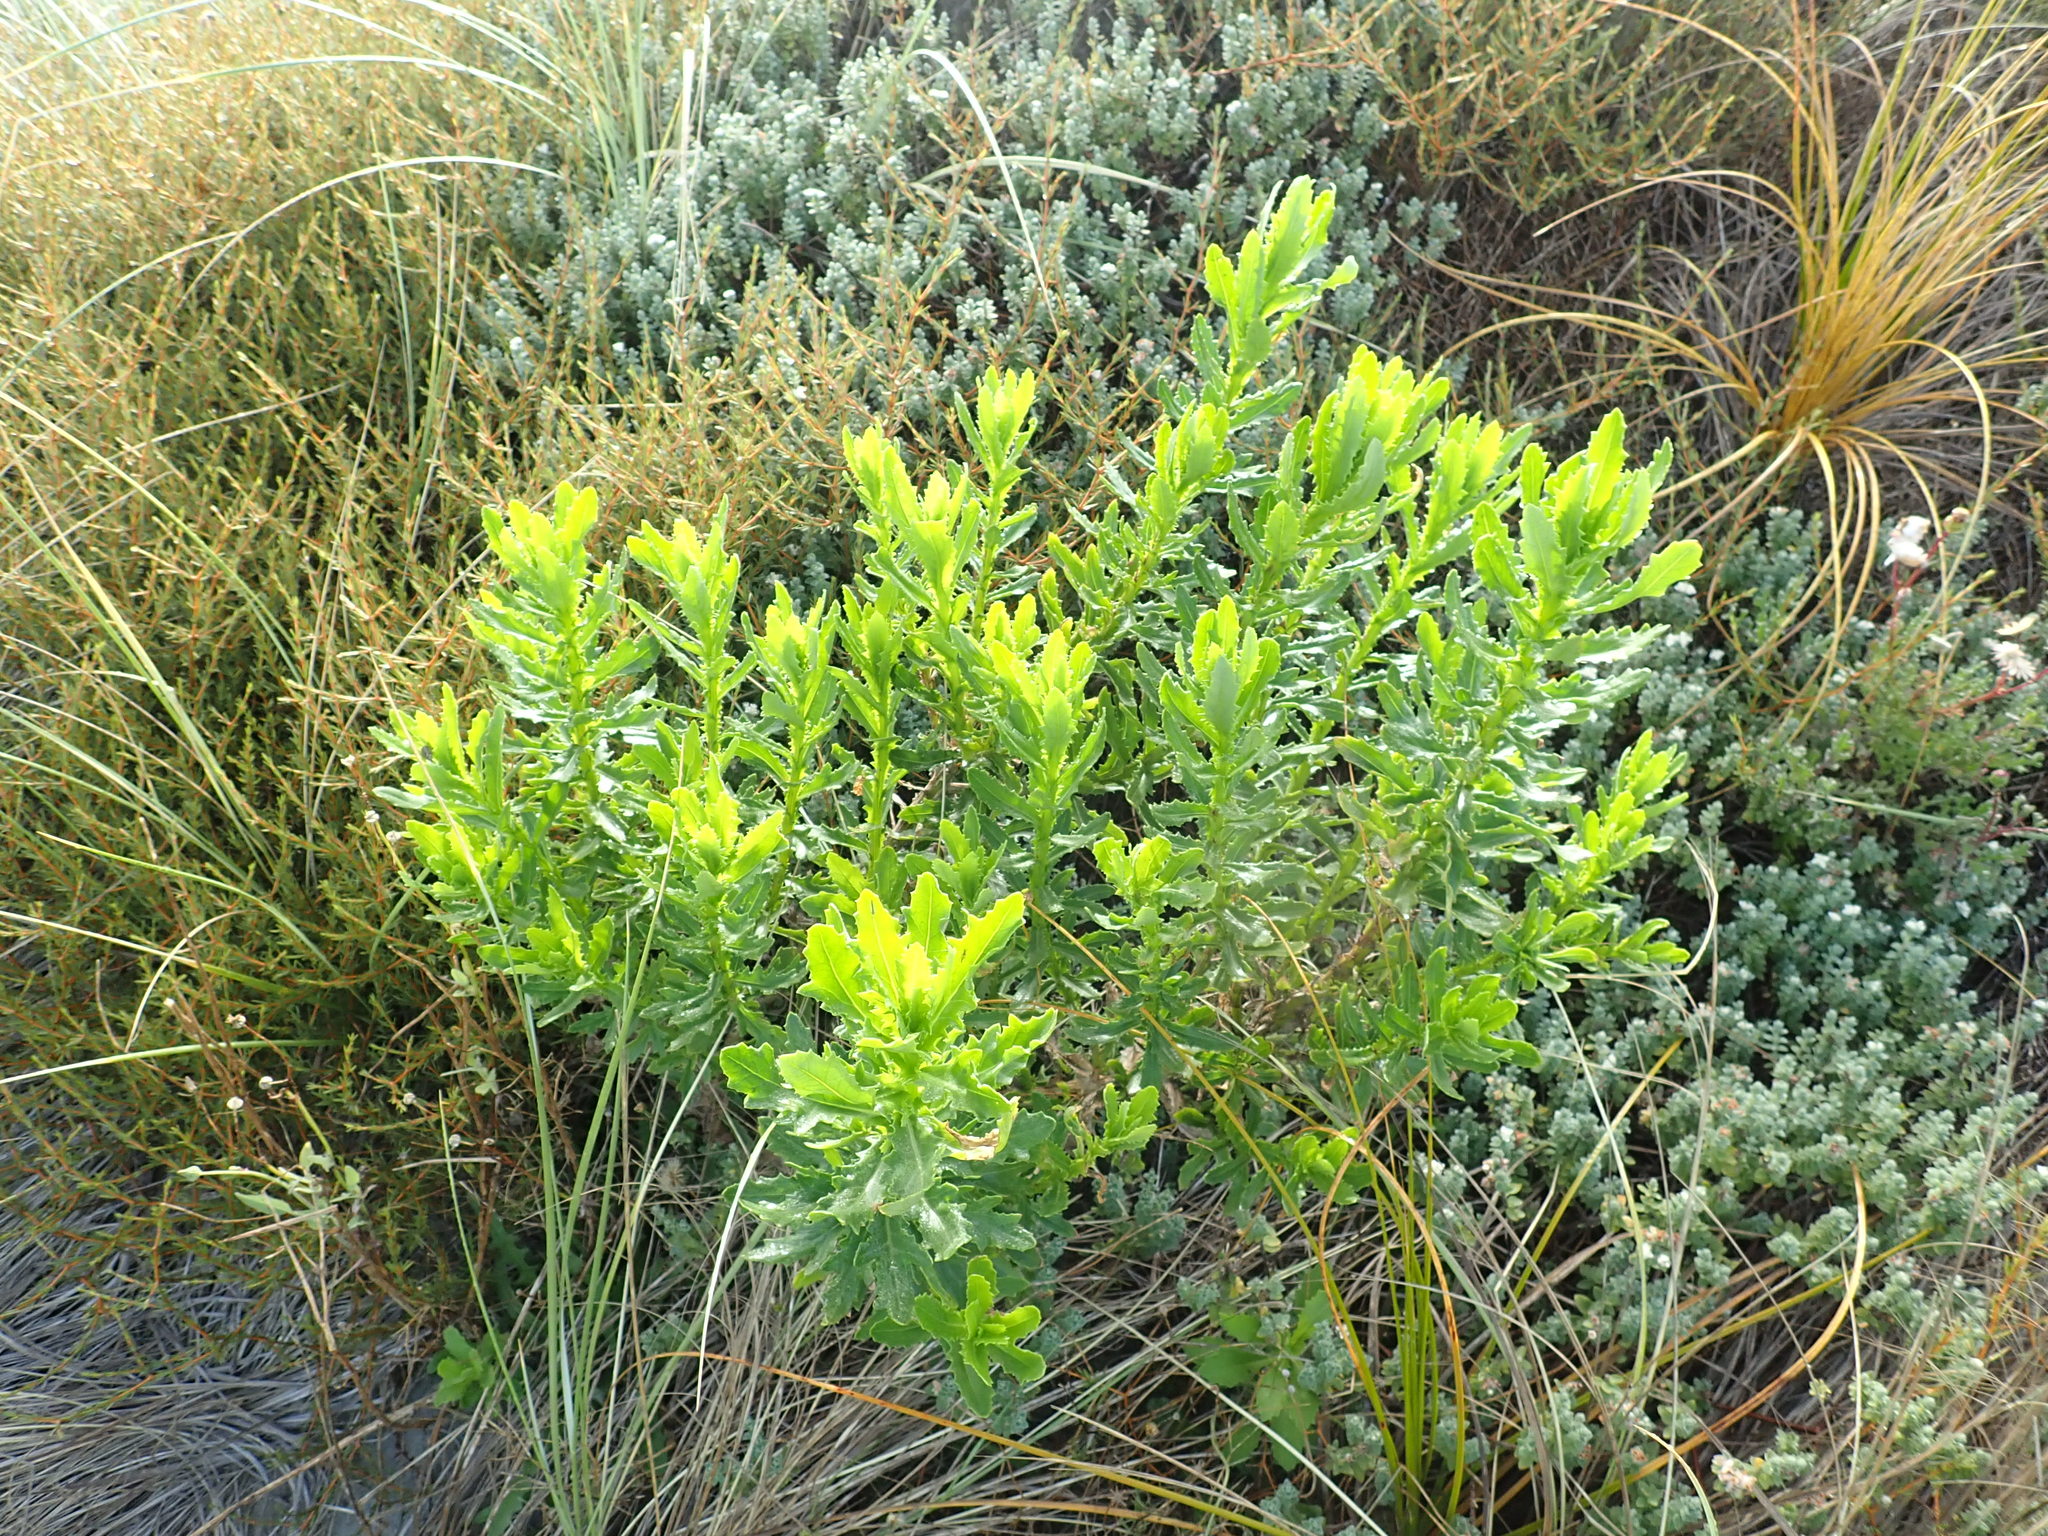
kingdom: Plantae
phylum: Tracheophyta
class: Magnoliopsida
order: Asterales
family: Asteraceae
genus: Senecio
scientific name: Senecio glastifolius
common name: Woad-leaved ragwort
